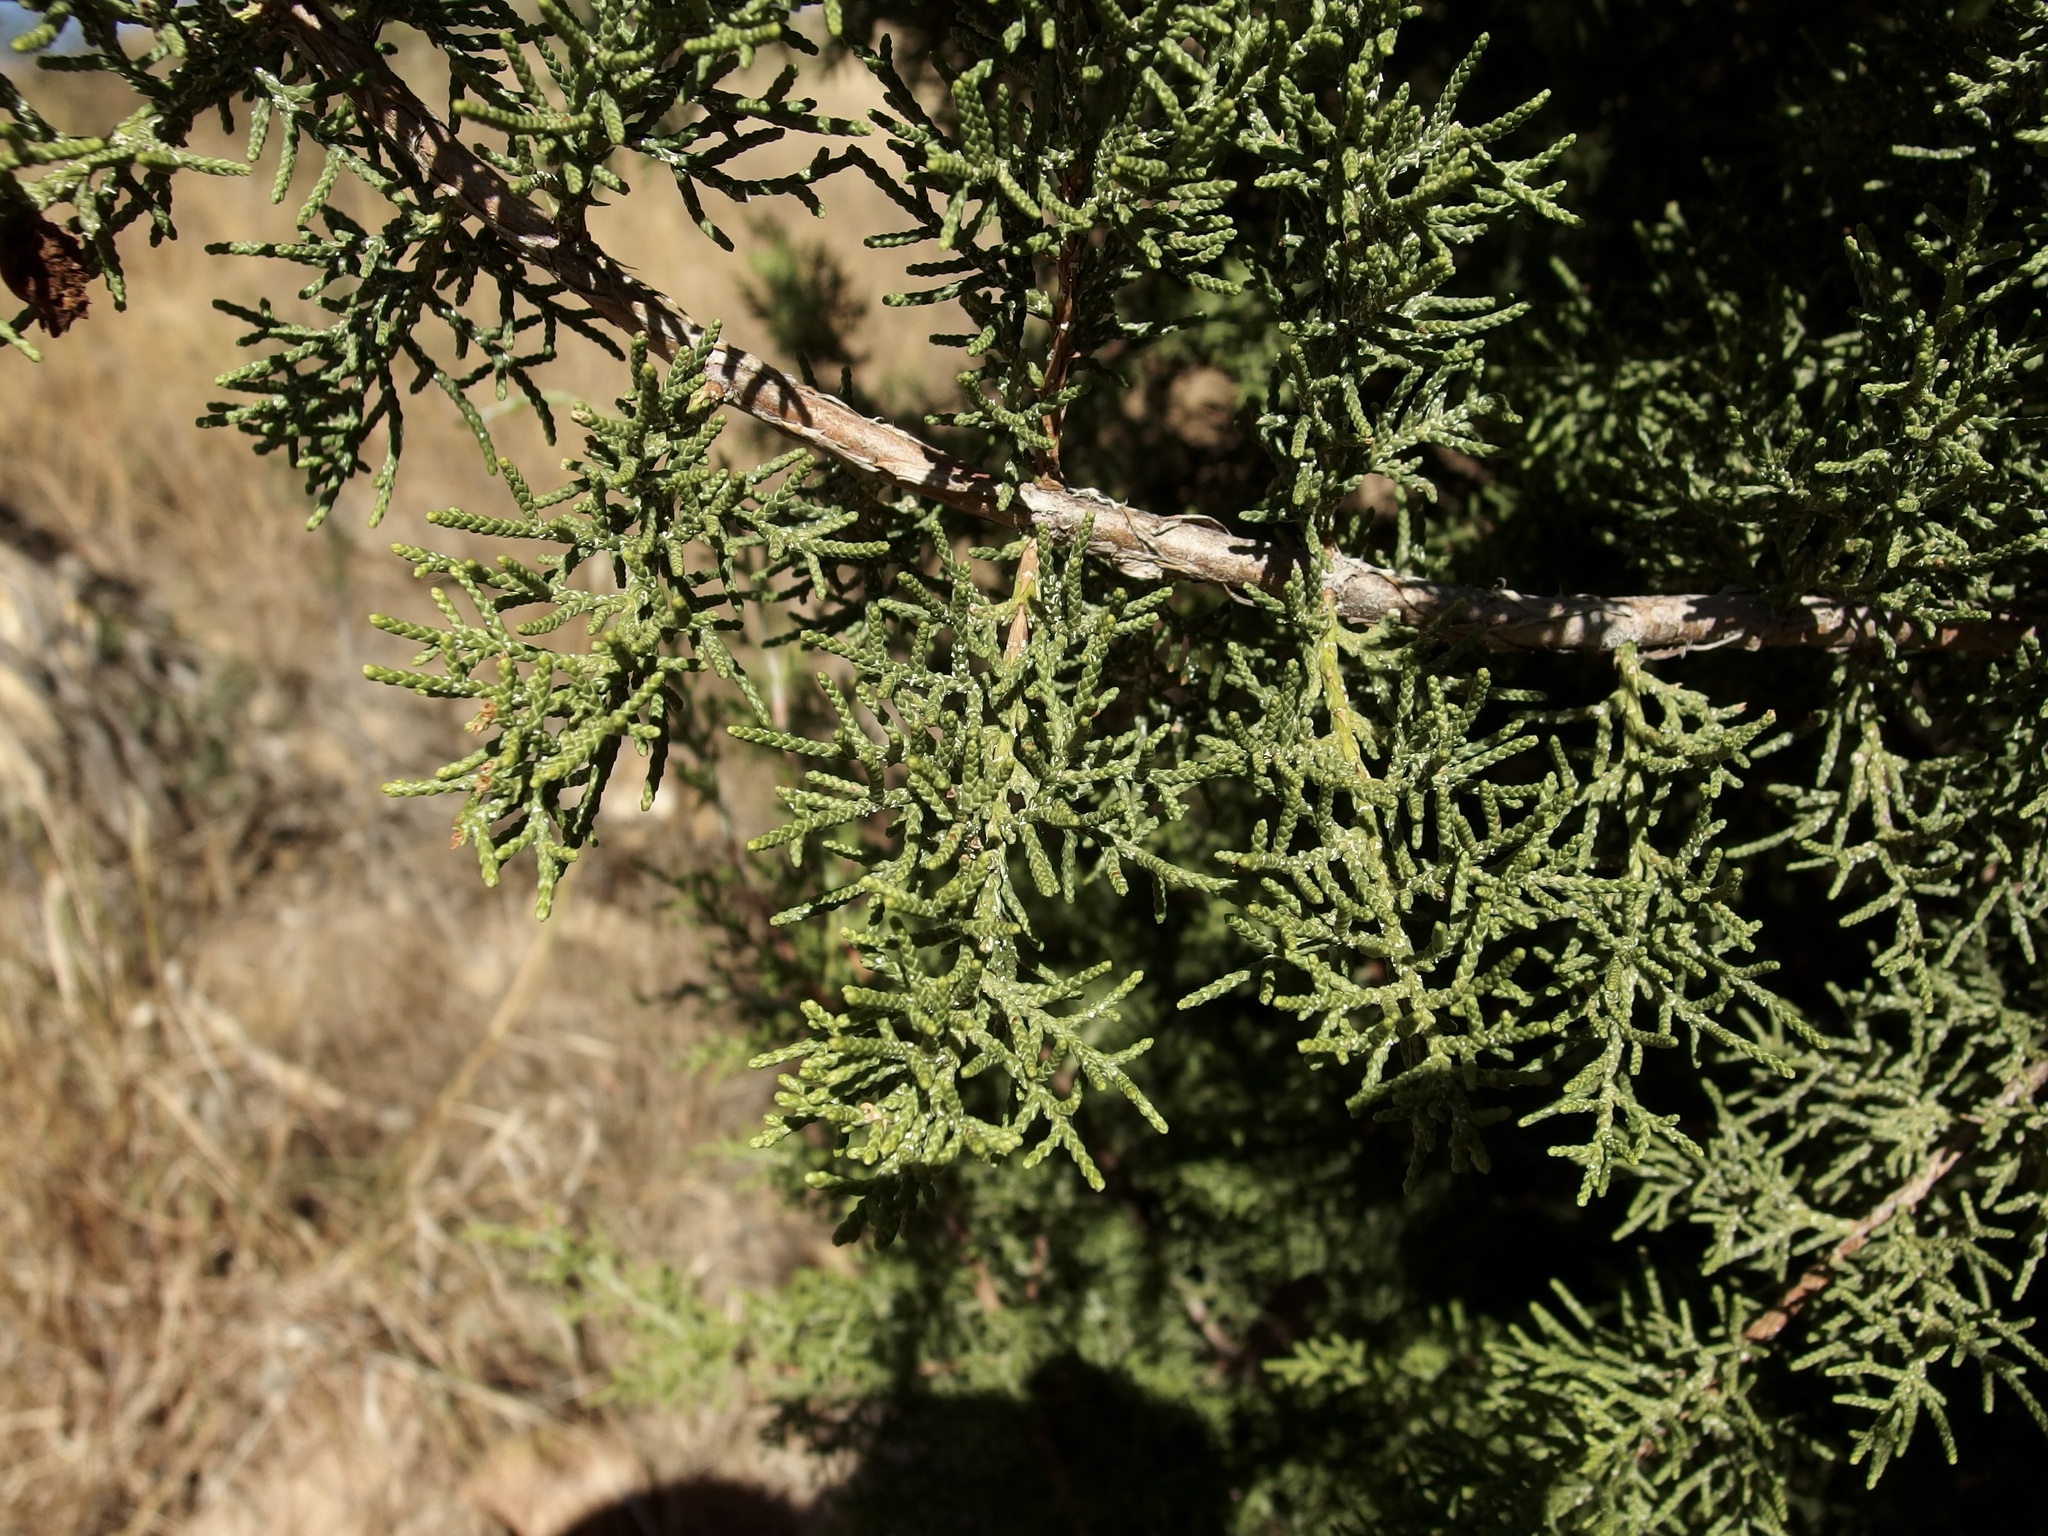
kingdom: Plantae
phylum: Tracheophyta
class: Pinopsida
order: Pinales
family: Cupressaceae
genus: Juniperus
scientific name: Juniperus arizonica
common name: Arizona juniper
